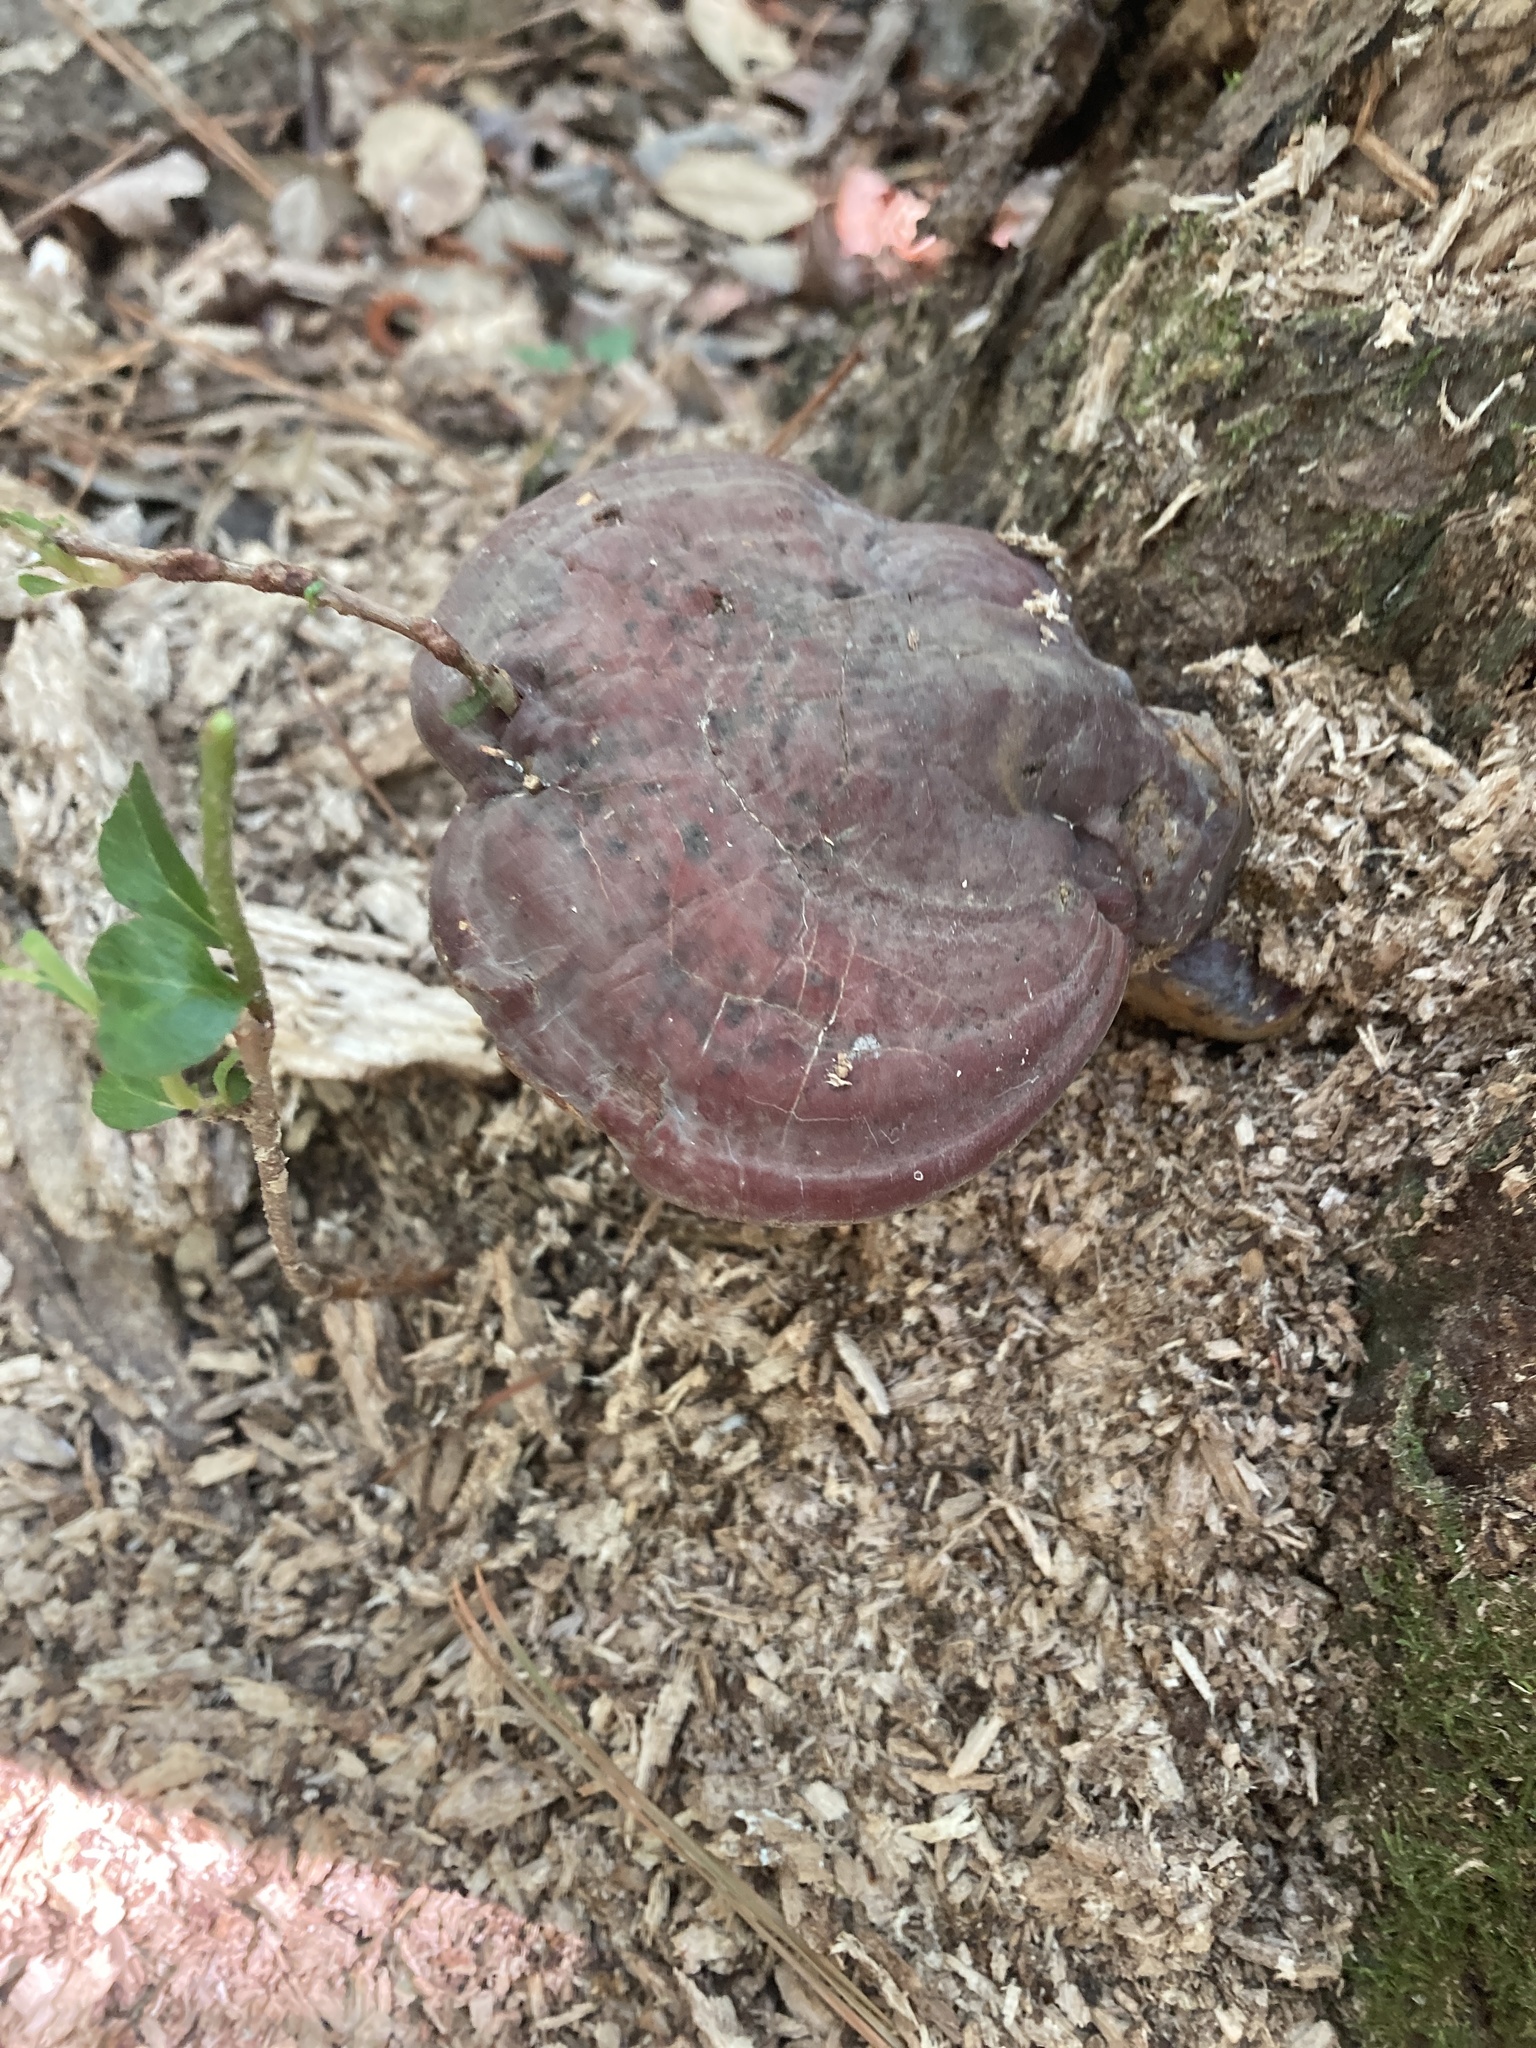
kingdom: Fungi
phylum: Basidiomycota
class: Agaricomycetes
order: Polyporales
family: Polyporaceae
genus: Ganoderma
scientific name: Ganoderma curtisii
